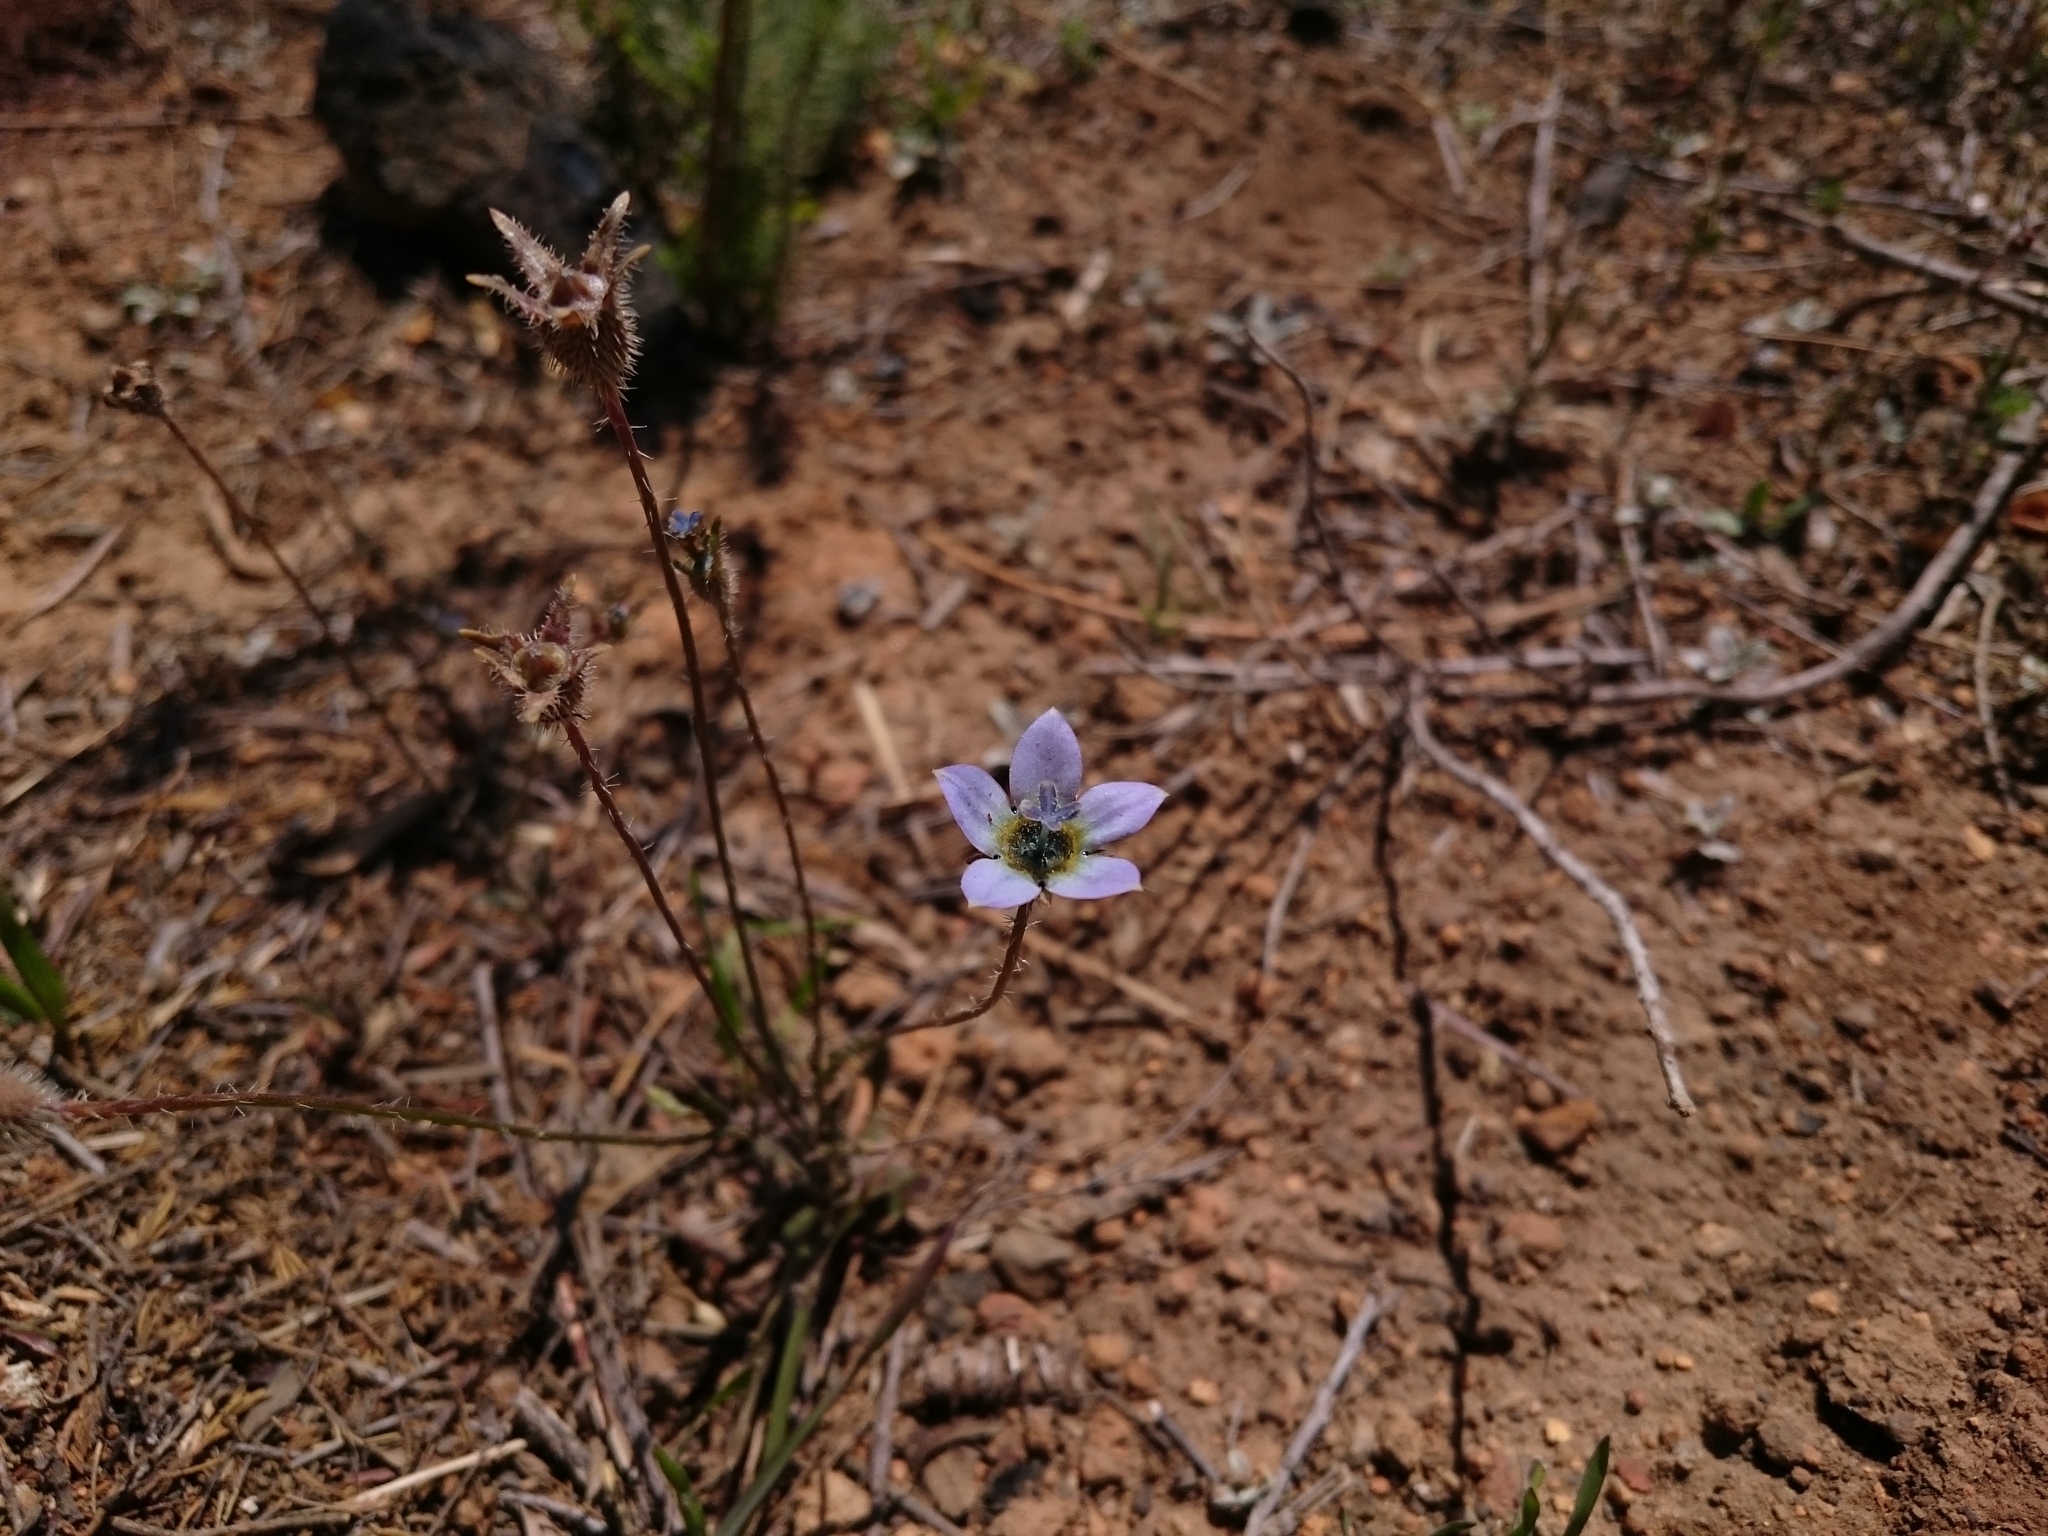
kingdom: Plantae
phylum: Tracheophyta
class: Magnoliopsida
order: Asterales
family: Campanulaceae
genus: Wahlenbergia
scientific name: Wahlenbergia capensis
